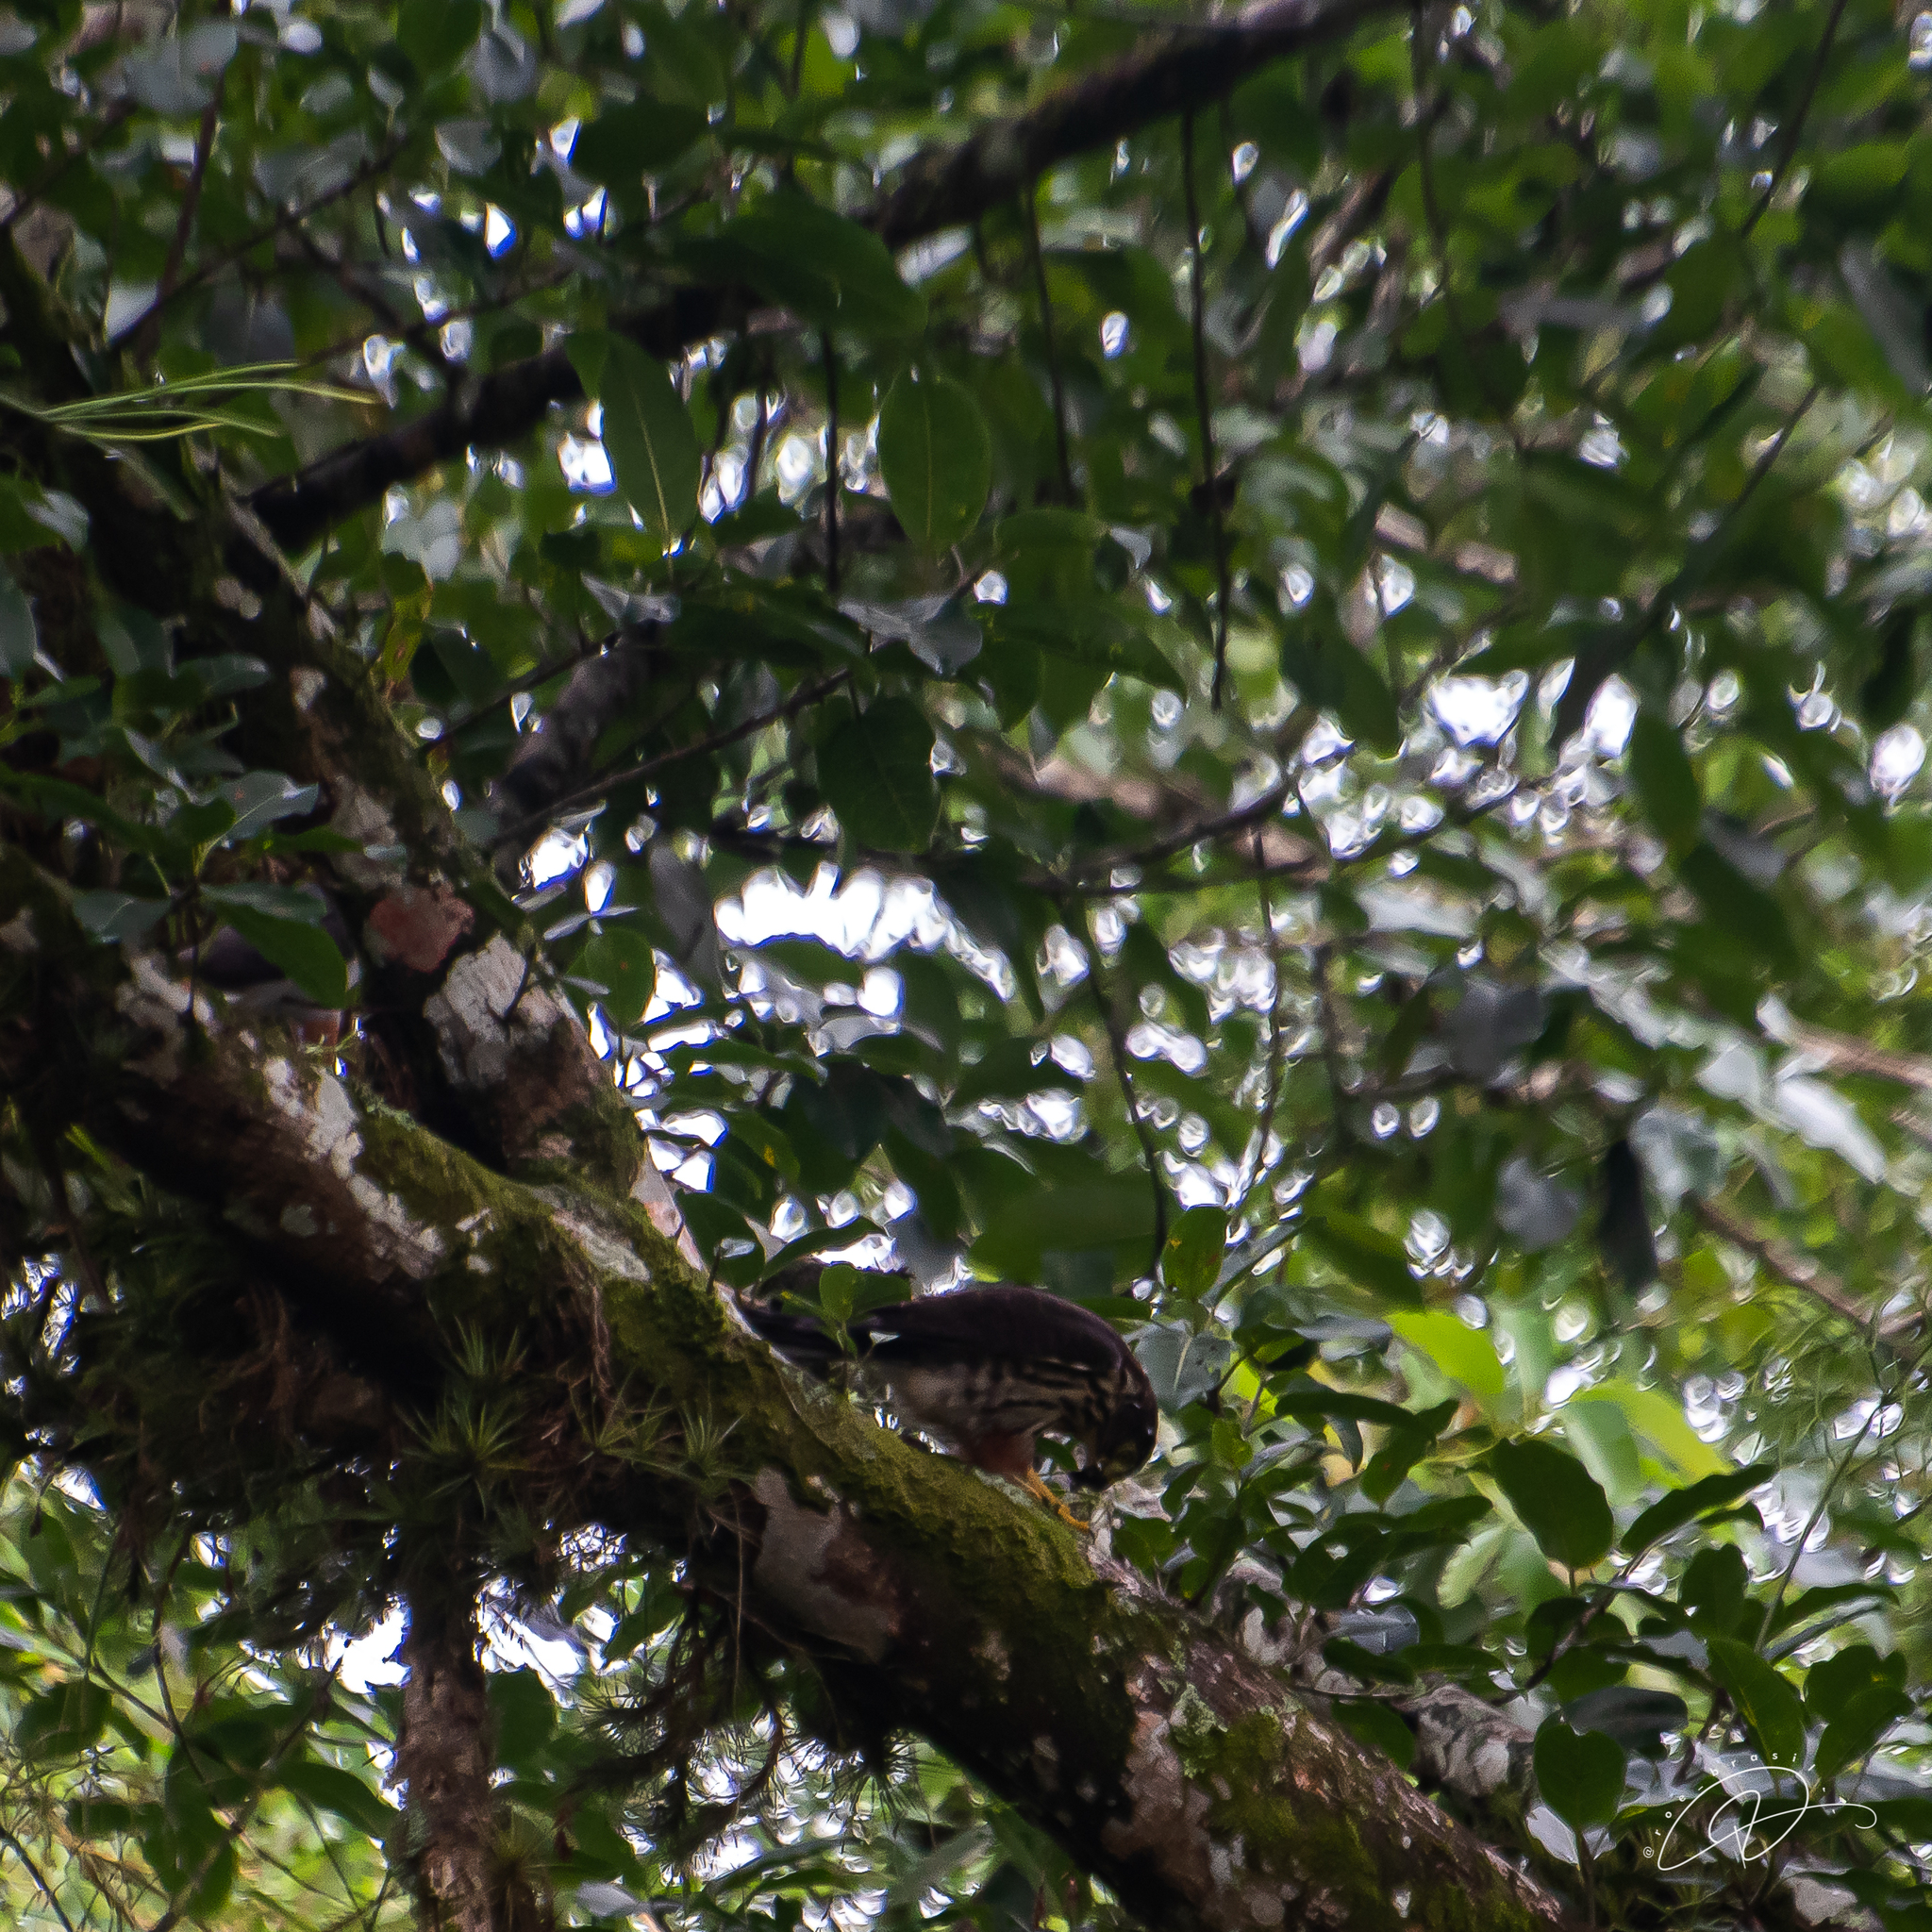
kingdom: Animalia
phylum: Chordata
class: Aves
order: Accipitriformes
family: Accipitridae
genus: Harpagus
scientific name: Harpagus diodon
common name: Rufous-thighed kite
